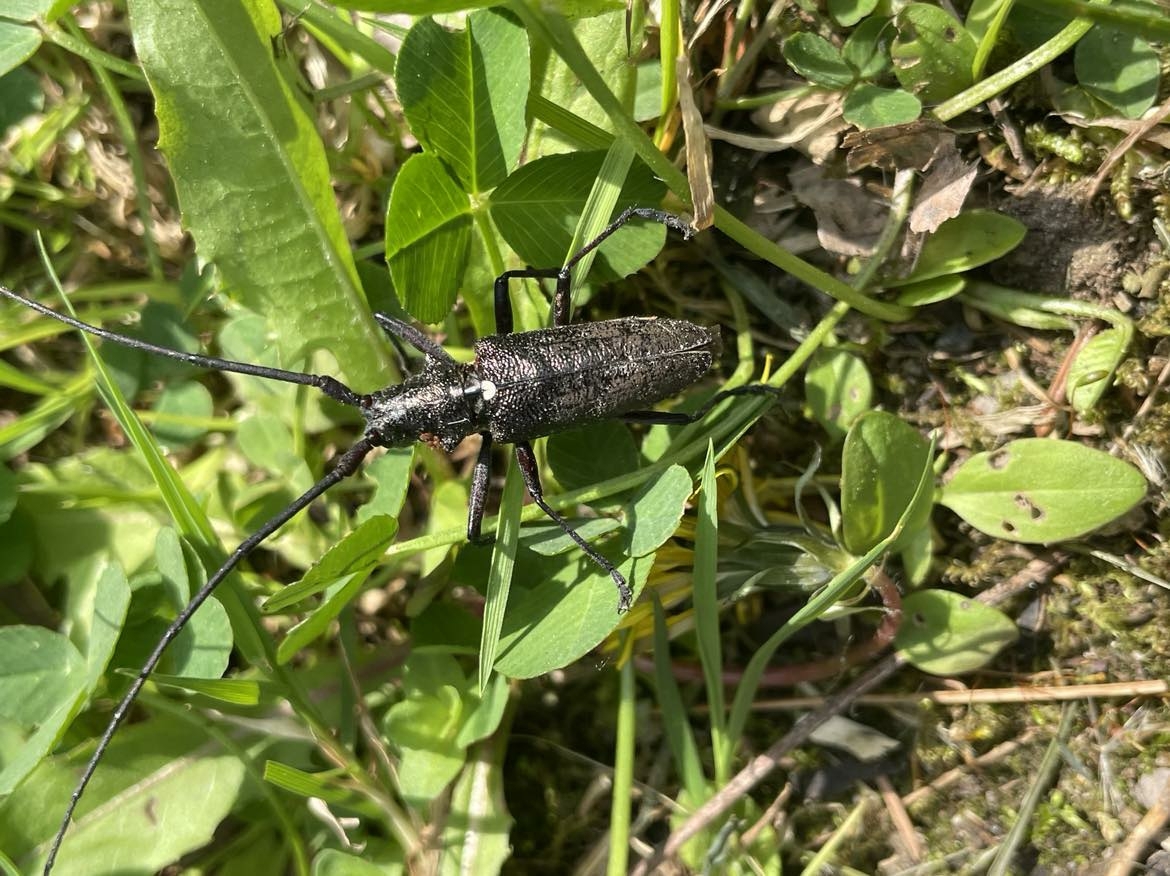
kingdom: Animalia
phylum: Arthropoda
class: Insecta
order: Coleoptera
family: Cerambycidae
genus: Monochamus
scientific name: Monochamus scutellatus
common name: White-spotted sawyer beetle
